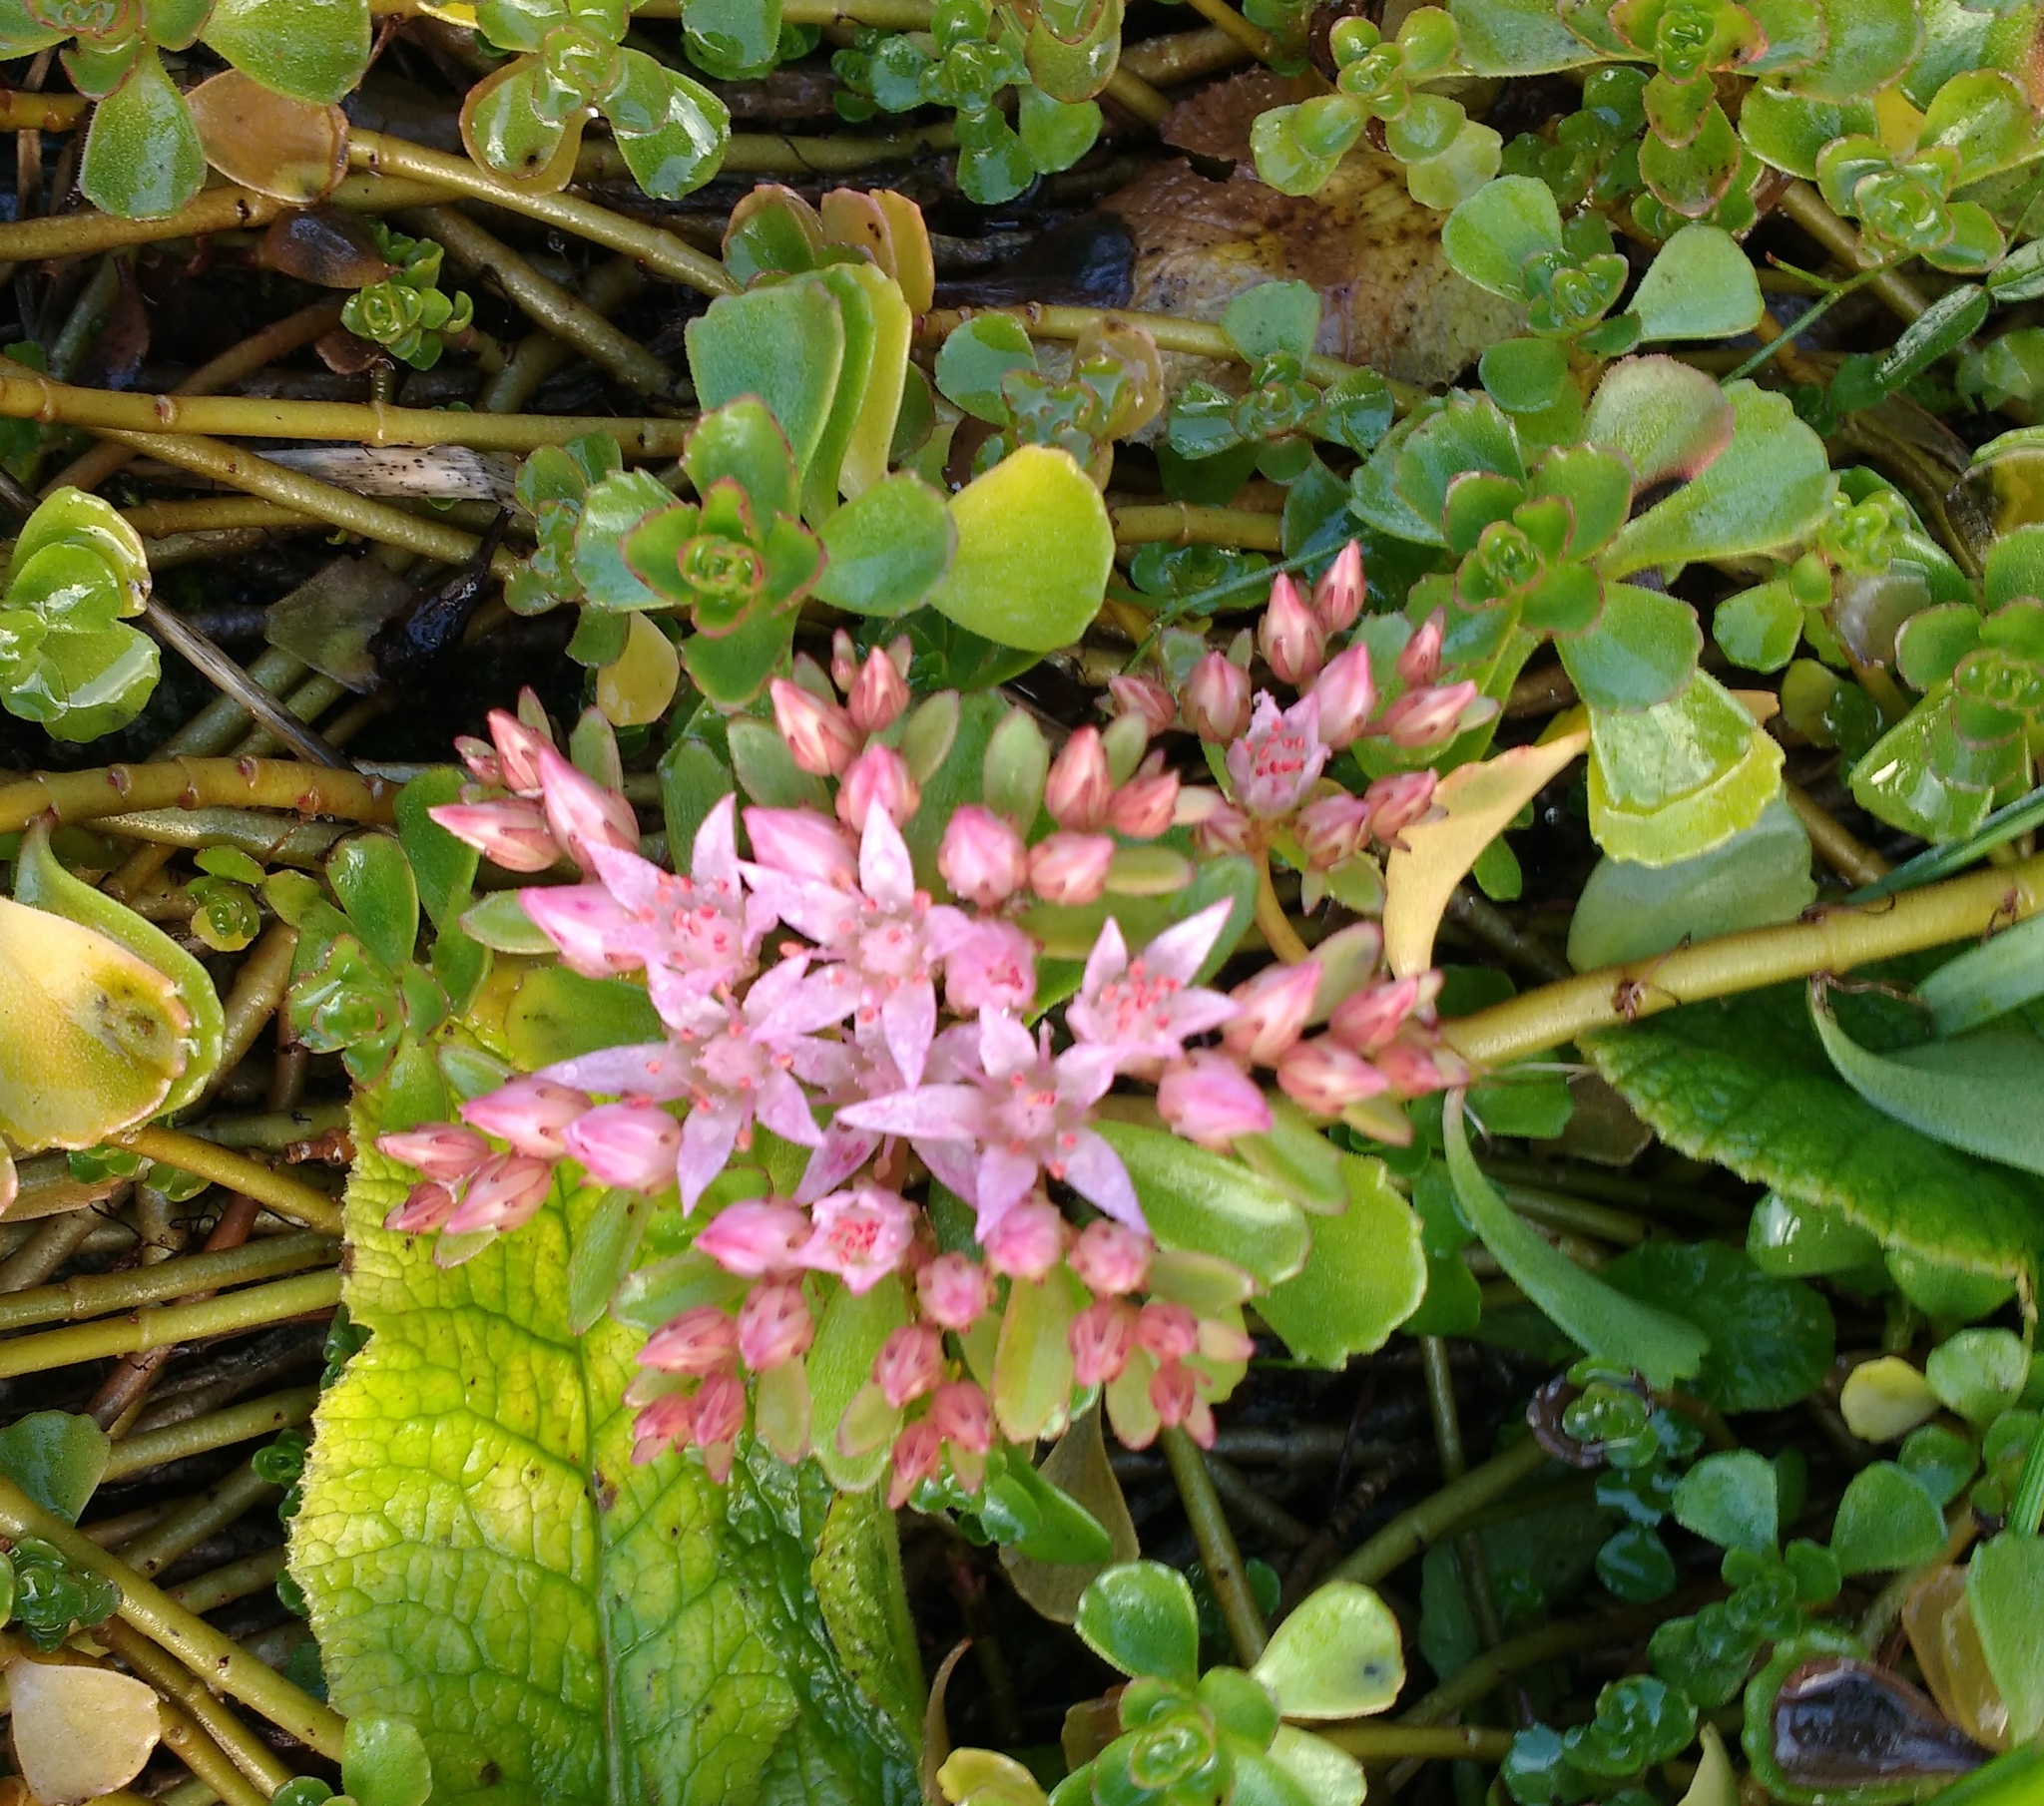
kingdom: Plantae
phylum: Tracheophyta
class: Magnoliopsida
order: Saxifragales
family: Crassulaceae
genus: Phedimus
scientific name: Phedimus spurius
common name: Caucasian stonecrop
